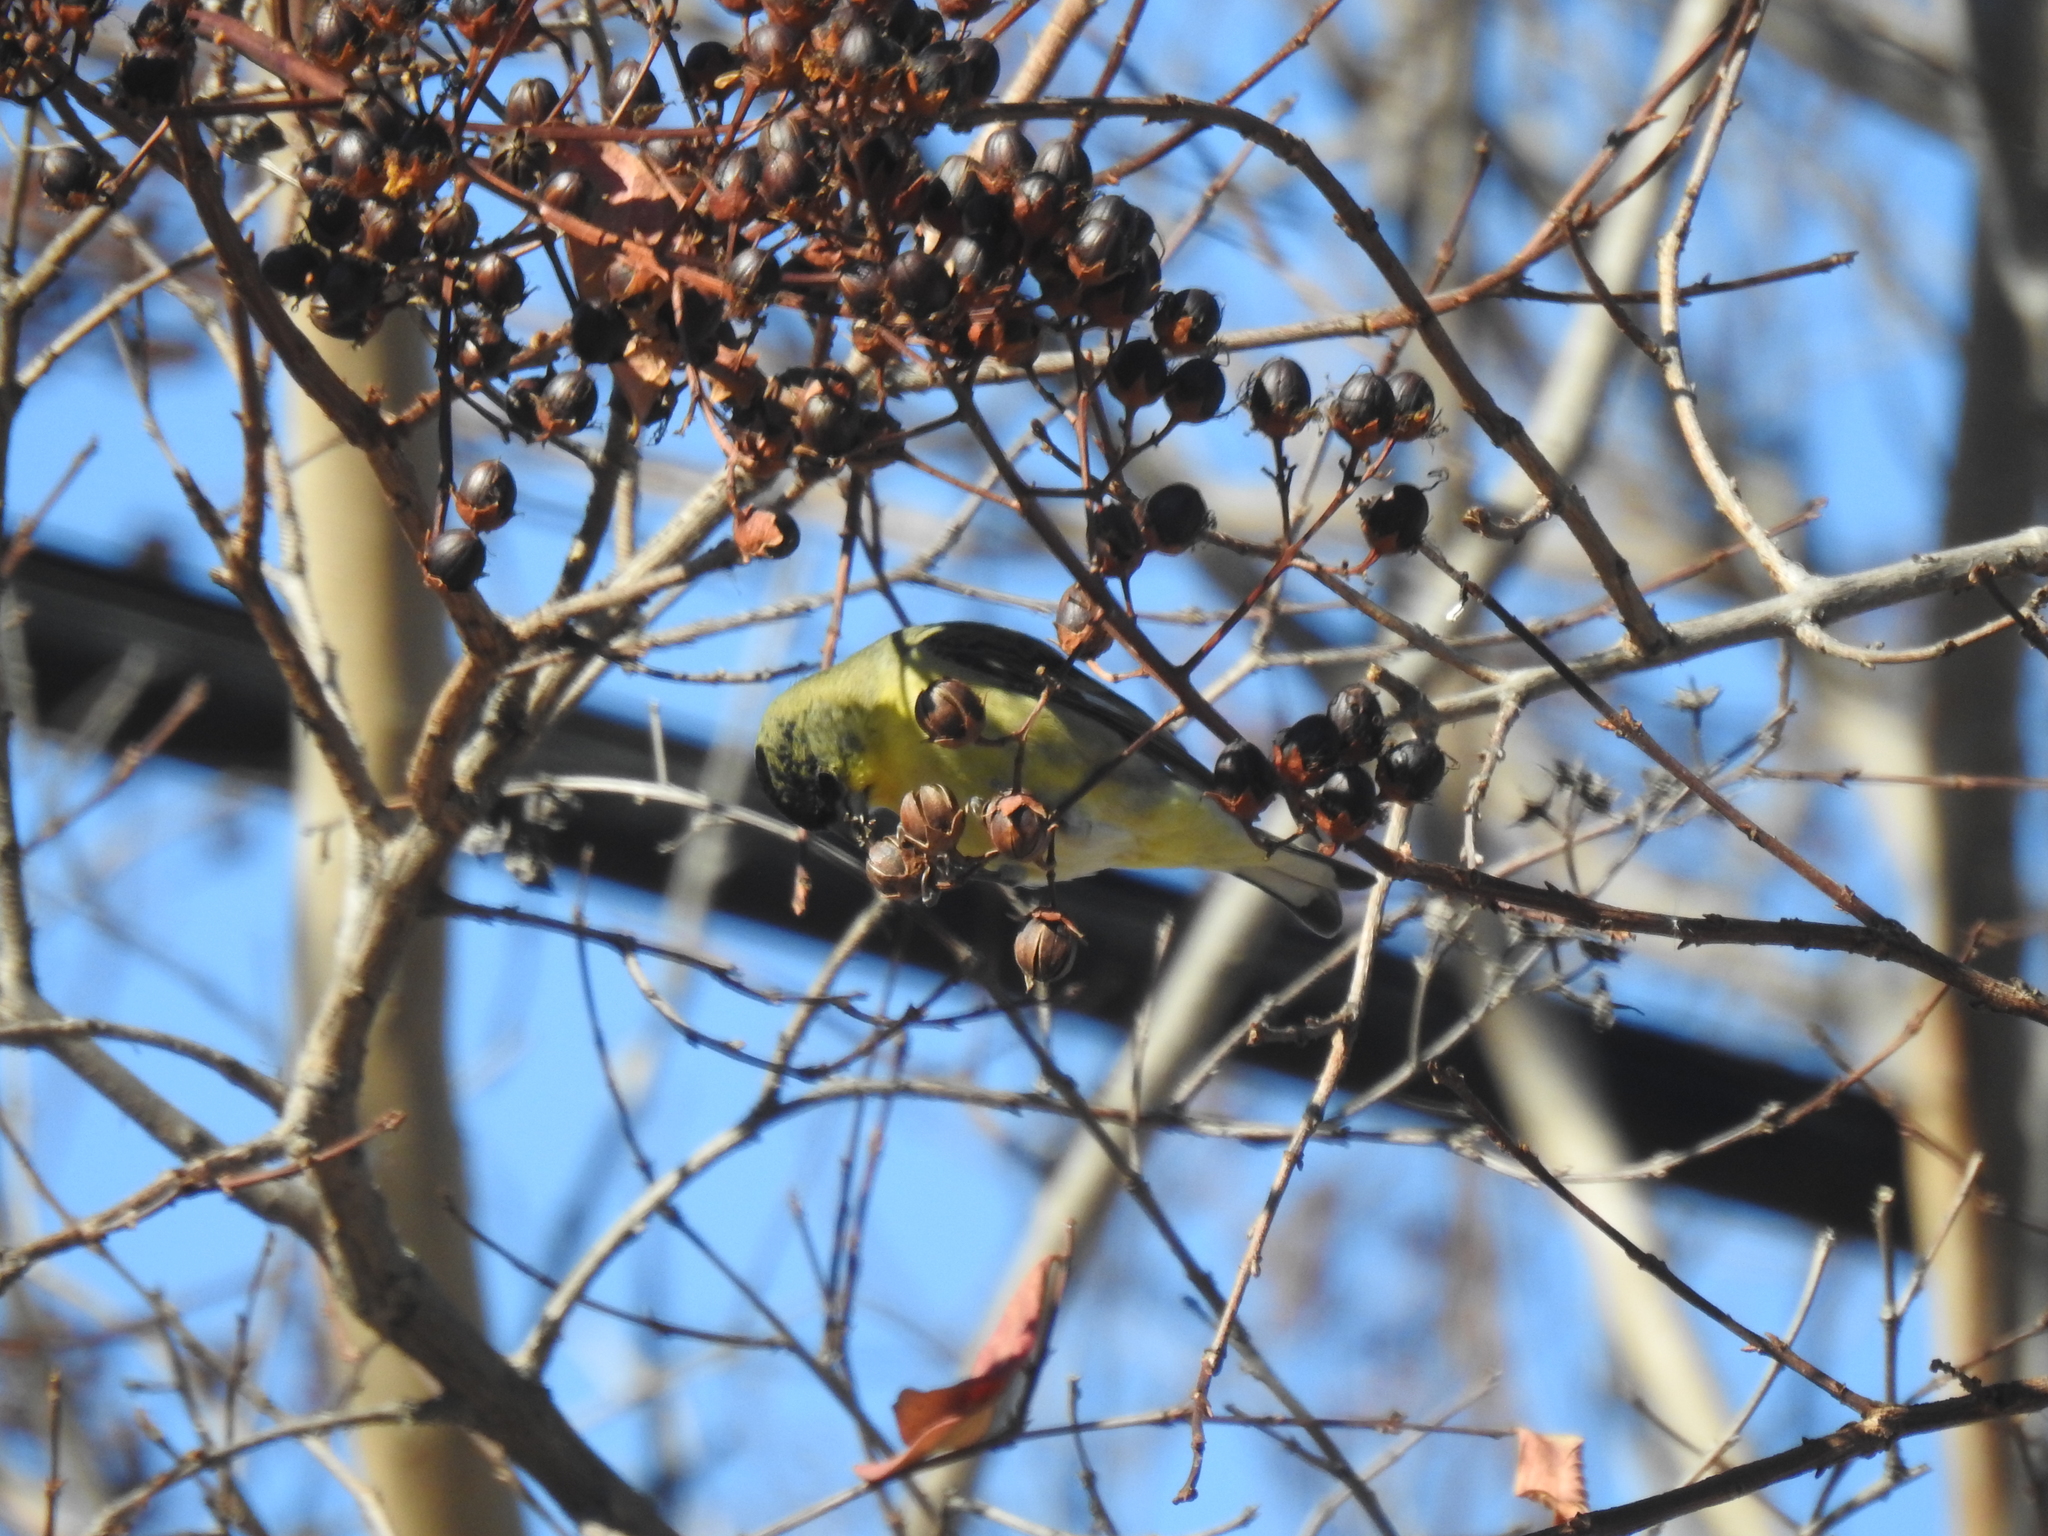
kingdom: Animalia
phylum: Chordata
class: Aves
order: Passeriformes
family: Fringillidae
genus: Spinus
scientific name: Spinus psaltria
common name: Lesser goldfinch
